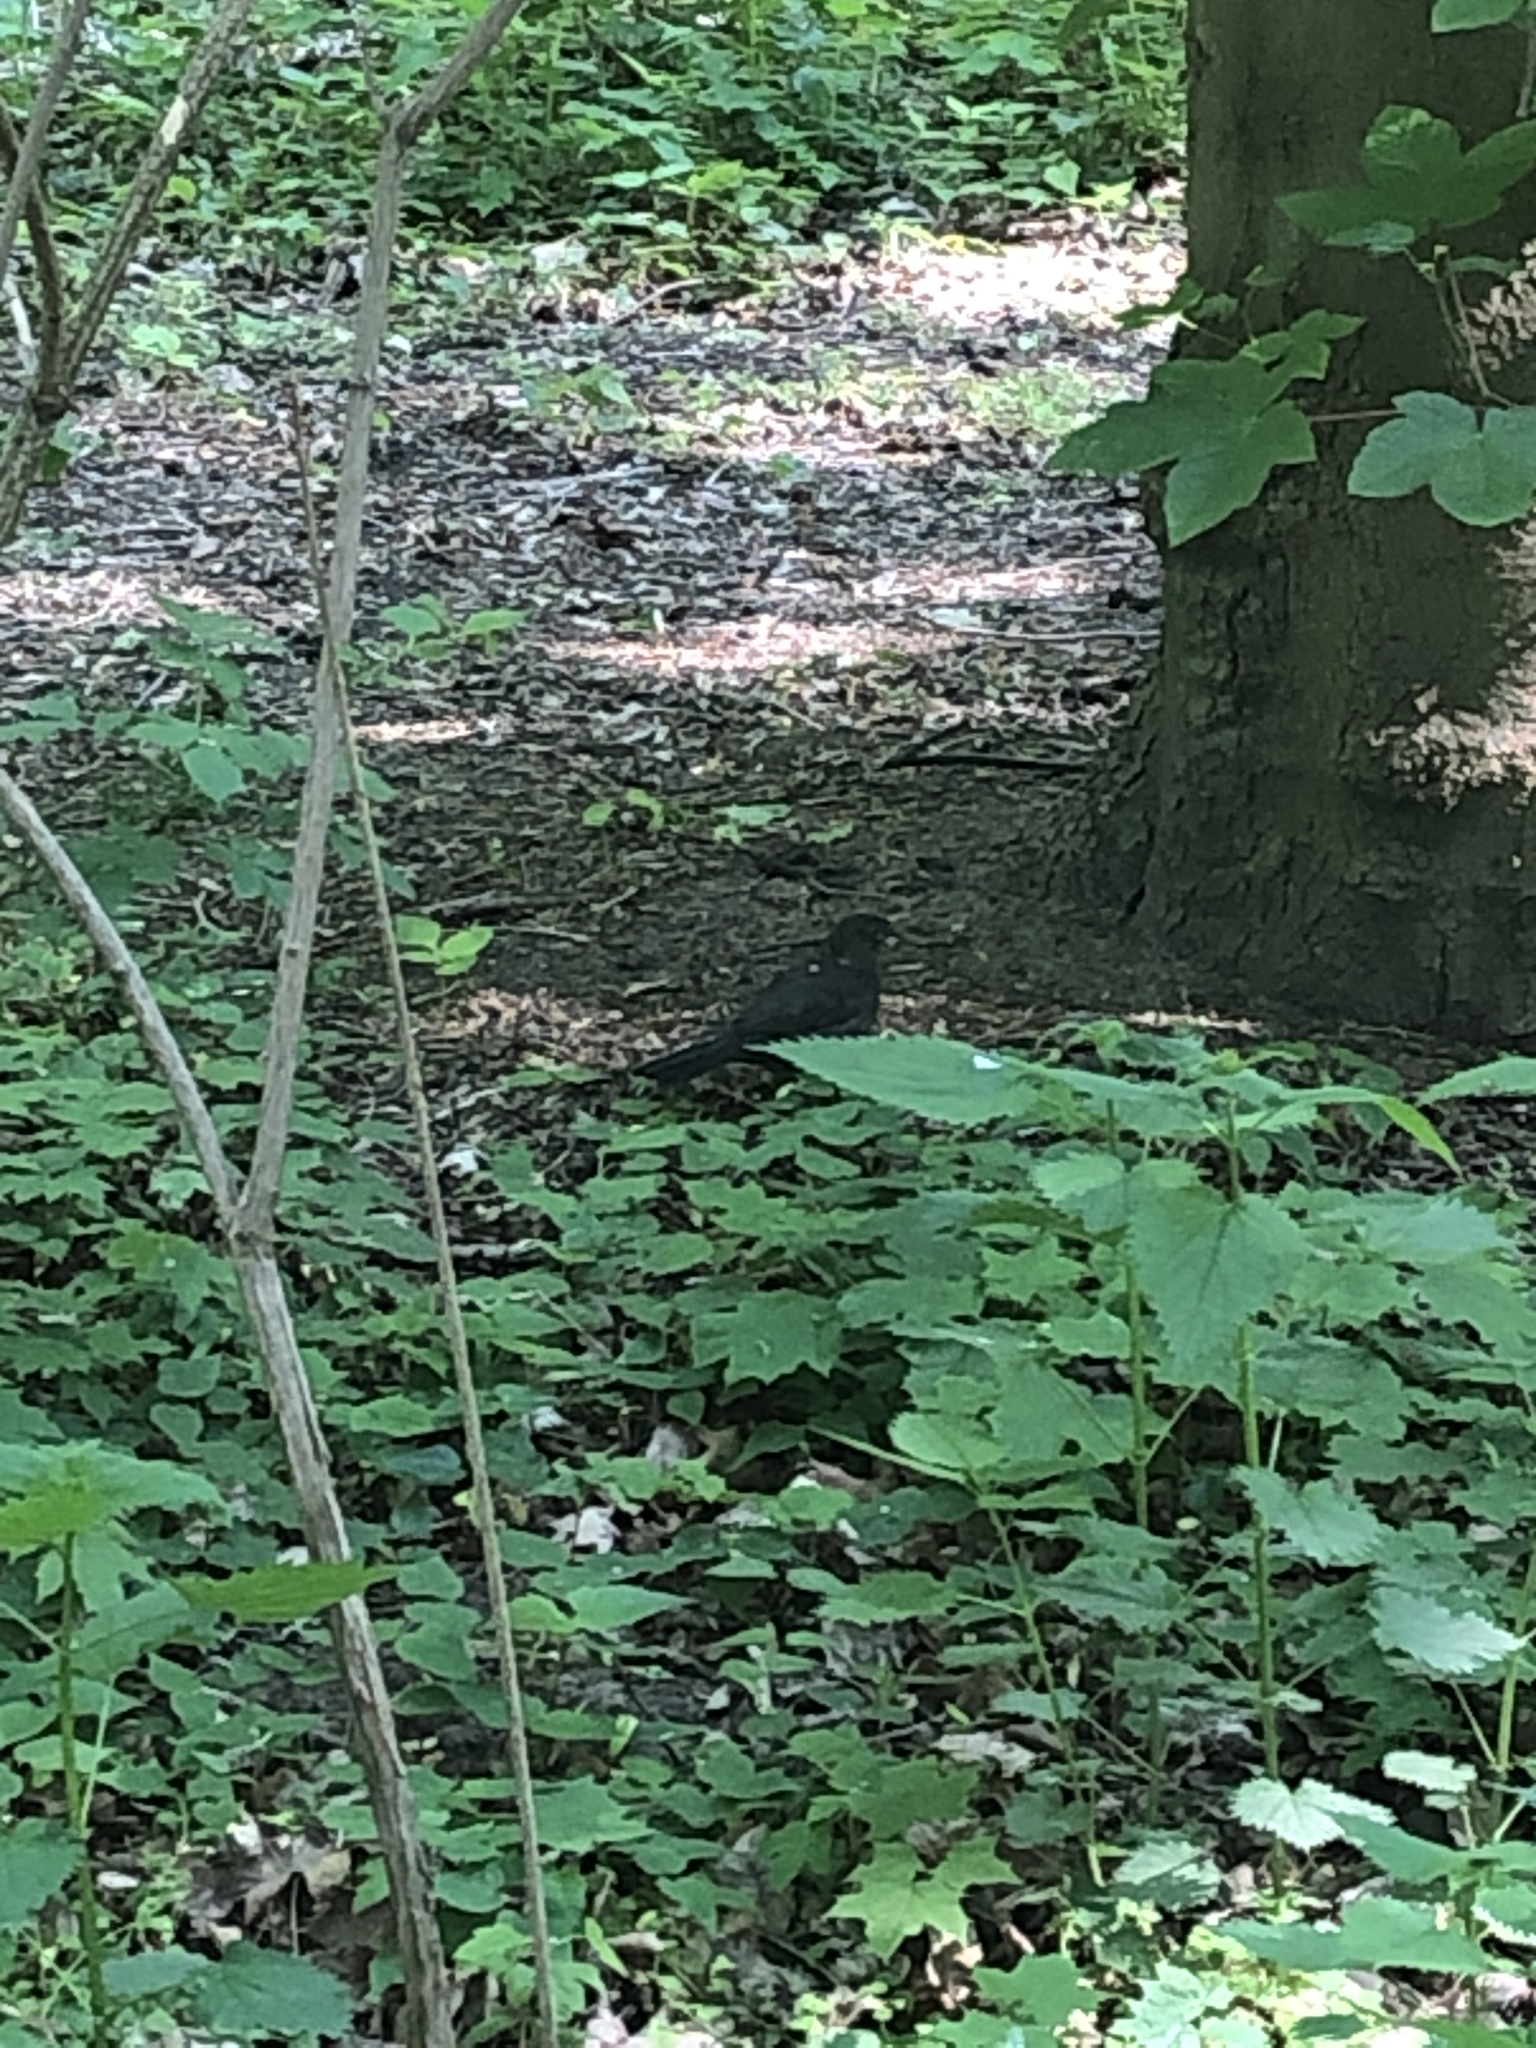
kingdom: Animalia
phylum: Chordata
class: Aves
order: Passeriformes
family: Turdidae
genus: Turdus
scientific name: Turdus merula
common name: Common blackbird
